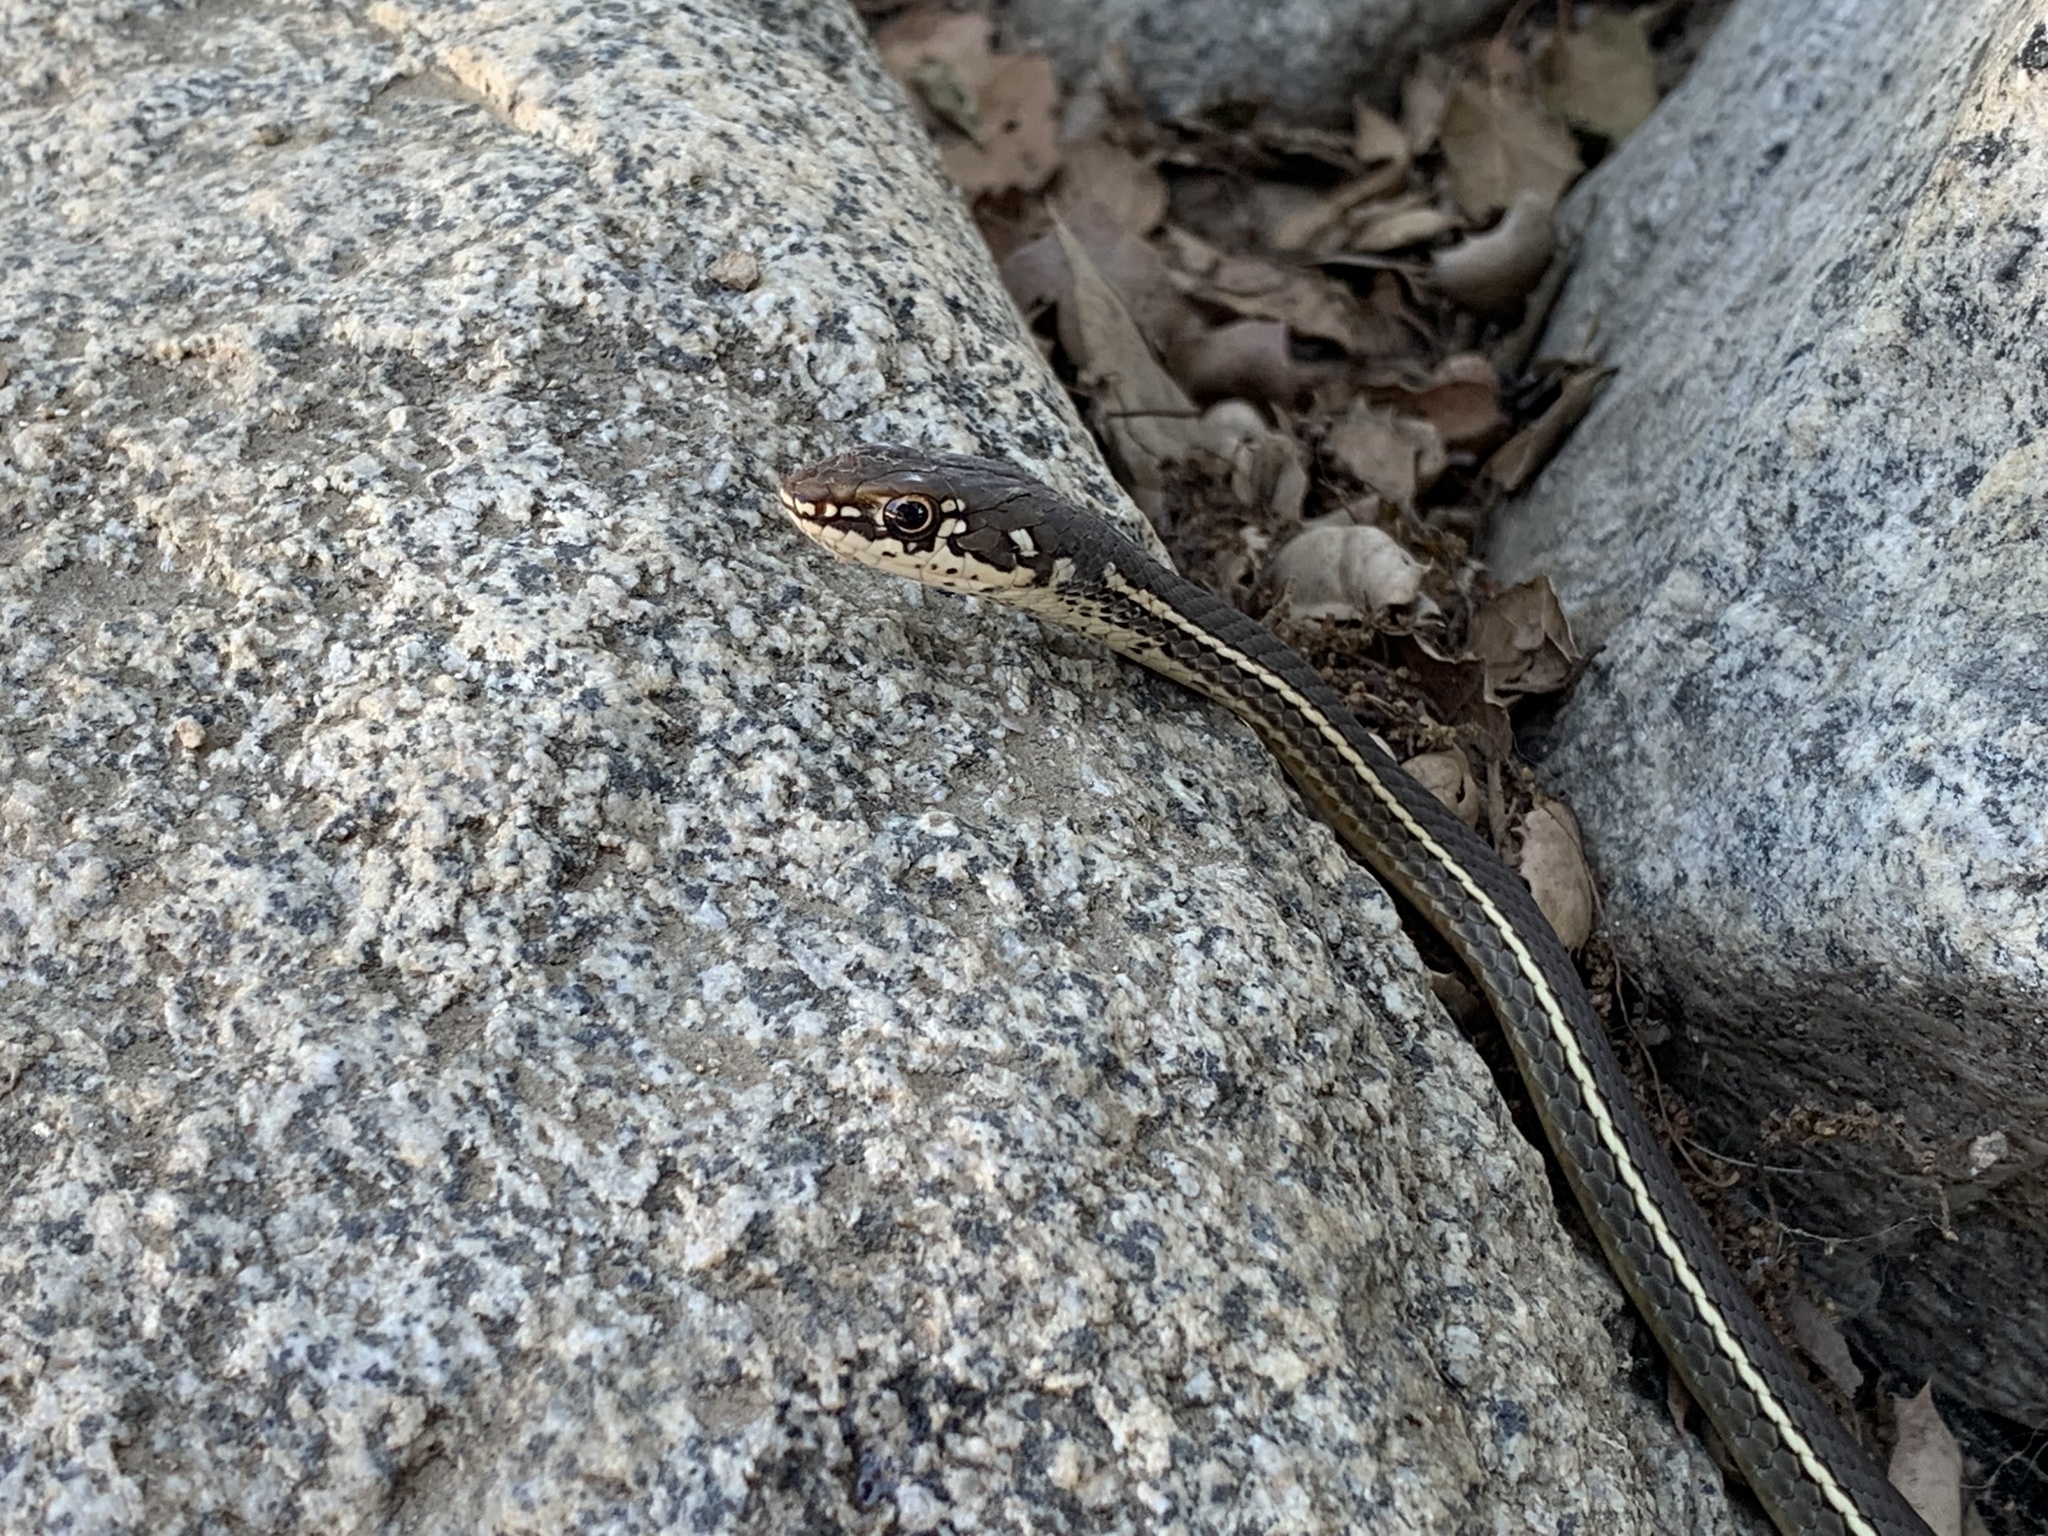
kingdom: Animalia
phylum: Chordata
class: Squamata
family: Colubridae
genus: Masticophis
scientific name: Masticophis lateralis
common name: Striped racer
